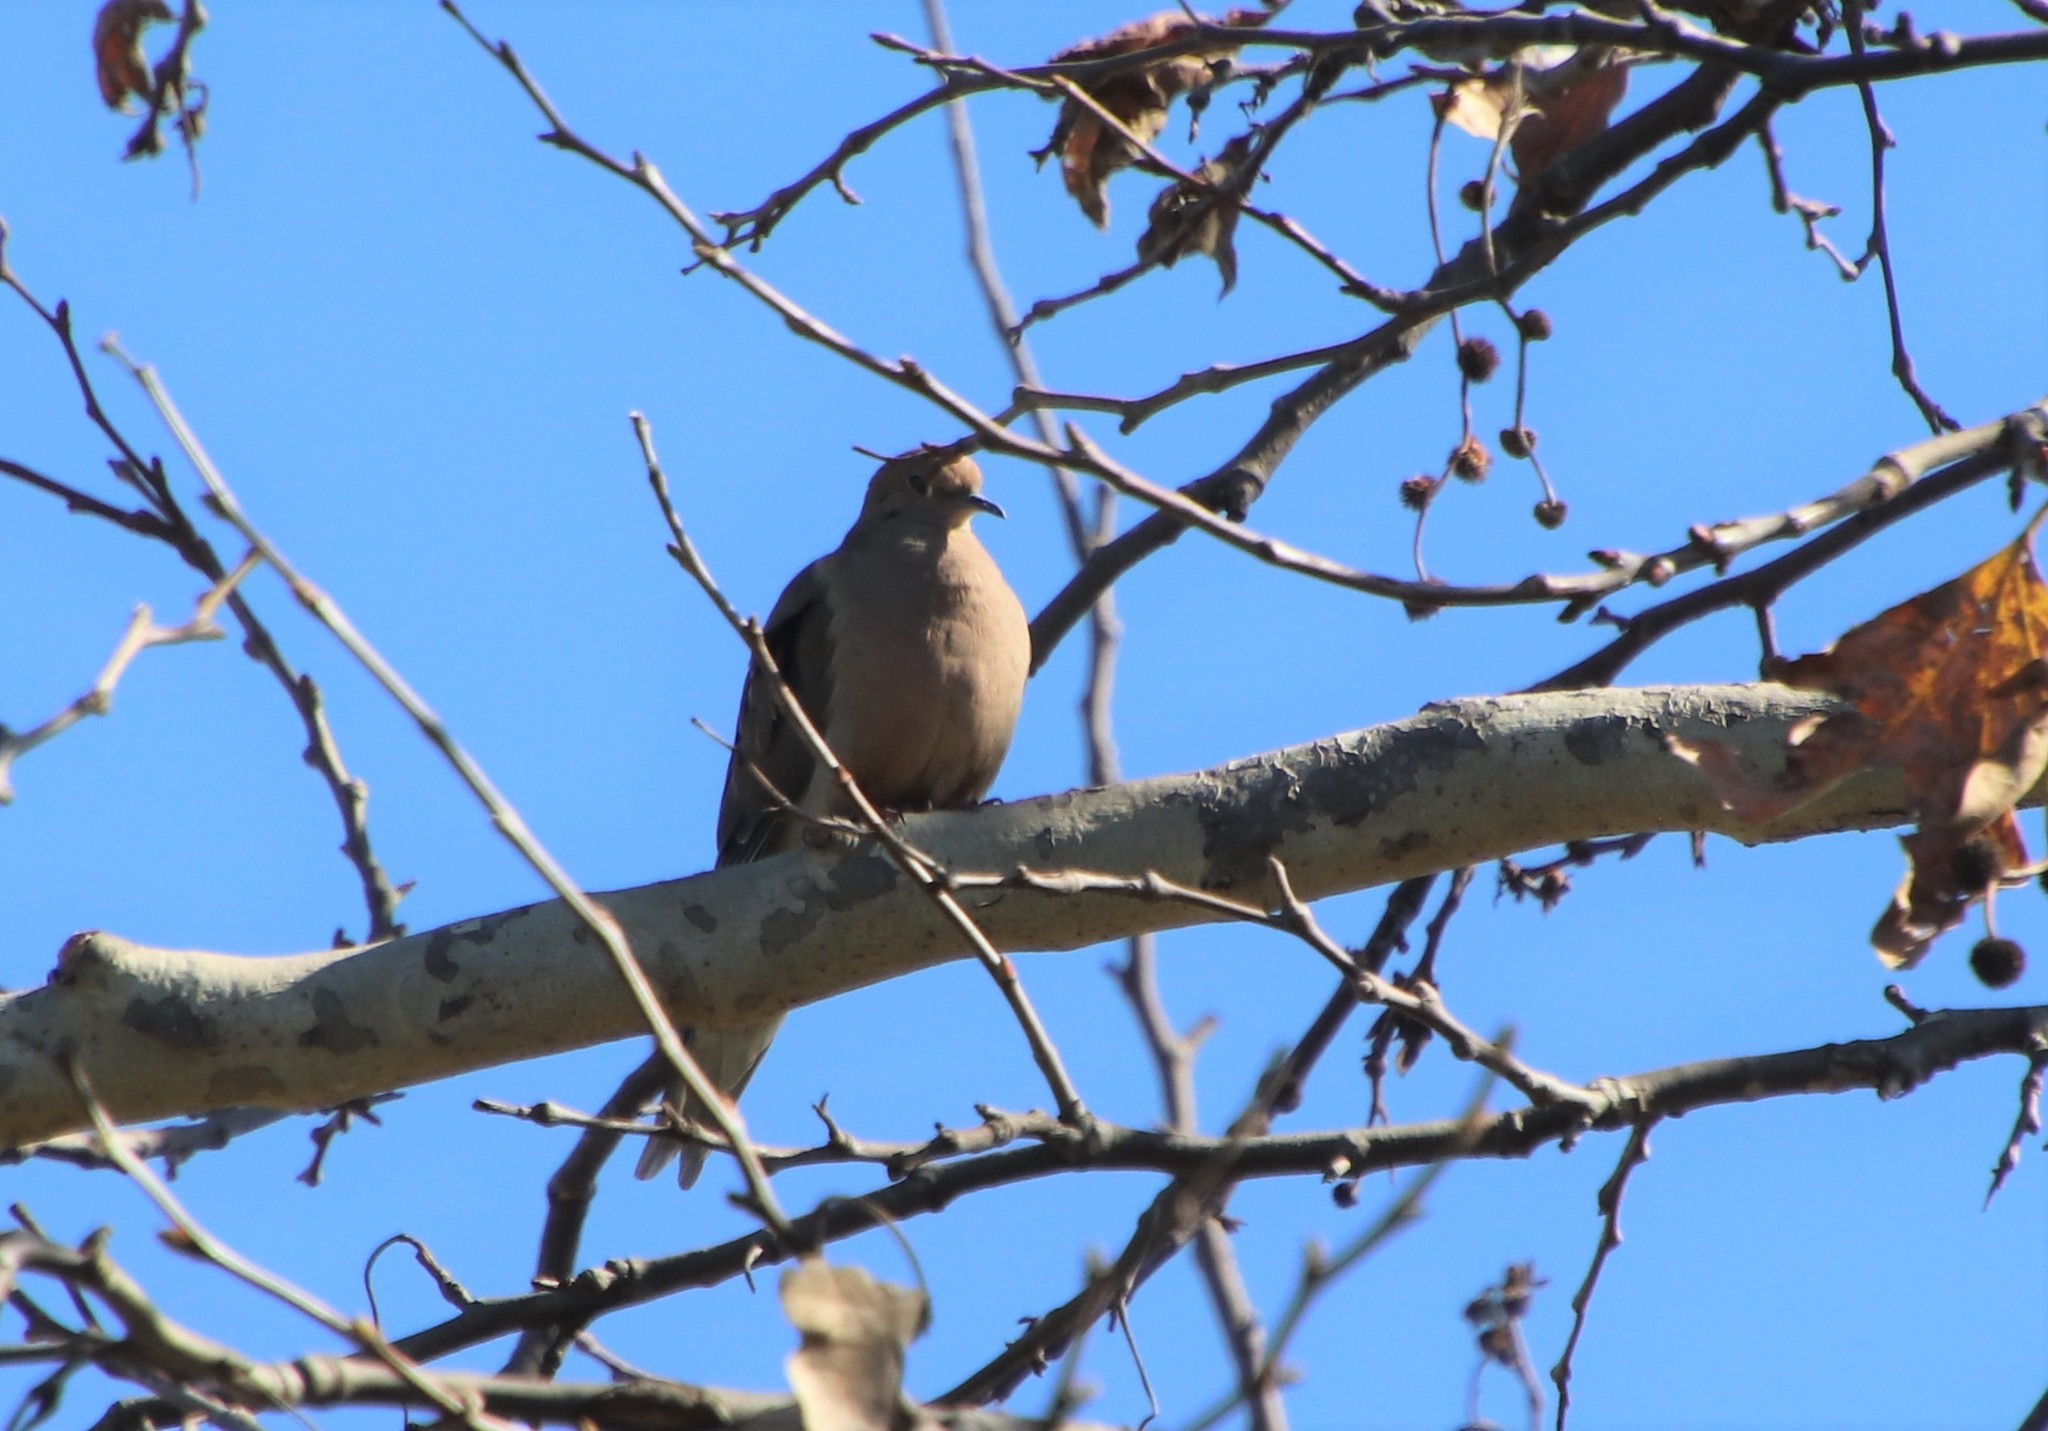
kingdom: Animalia
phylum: Chordata
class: Aves
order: Columbiformes
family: Columbidae
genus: Zenaida
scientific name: Zenaida macroura
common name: Mourning dove
